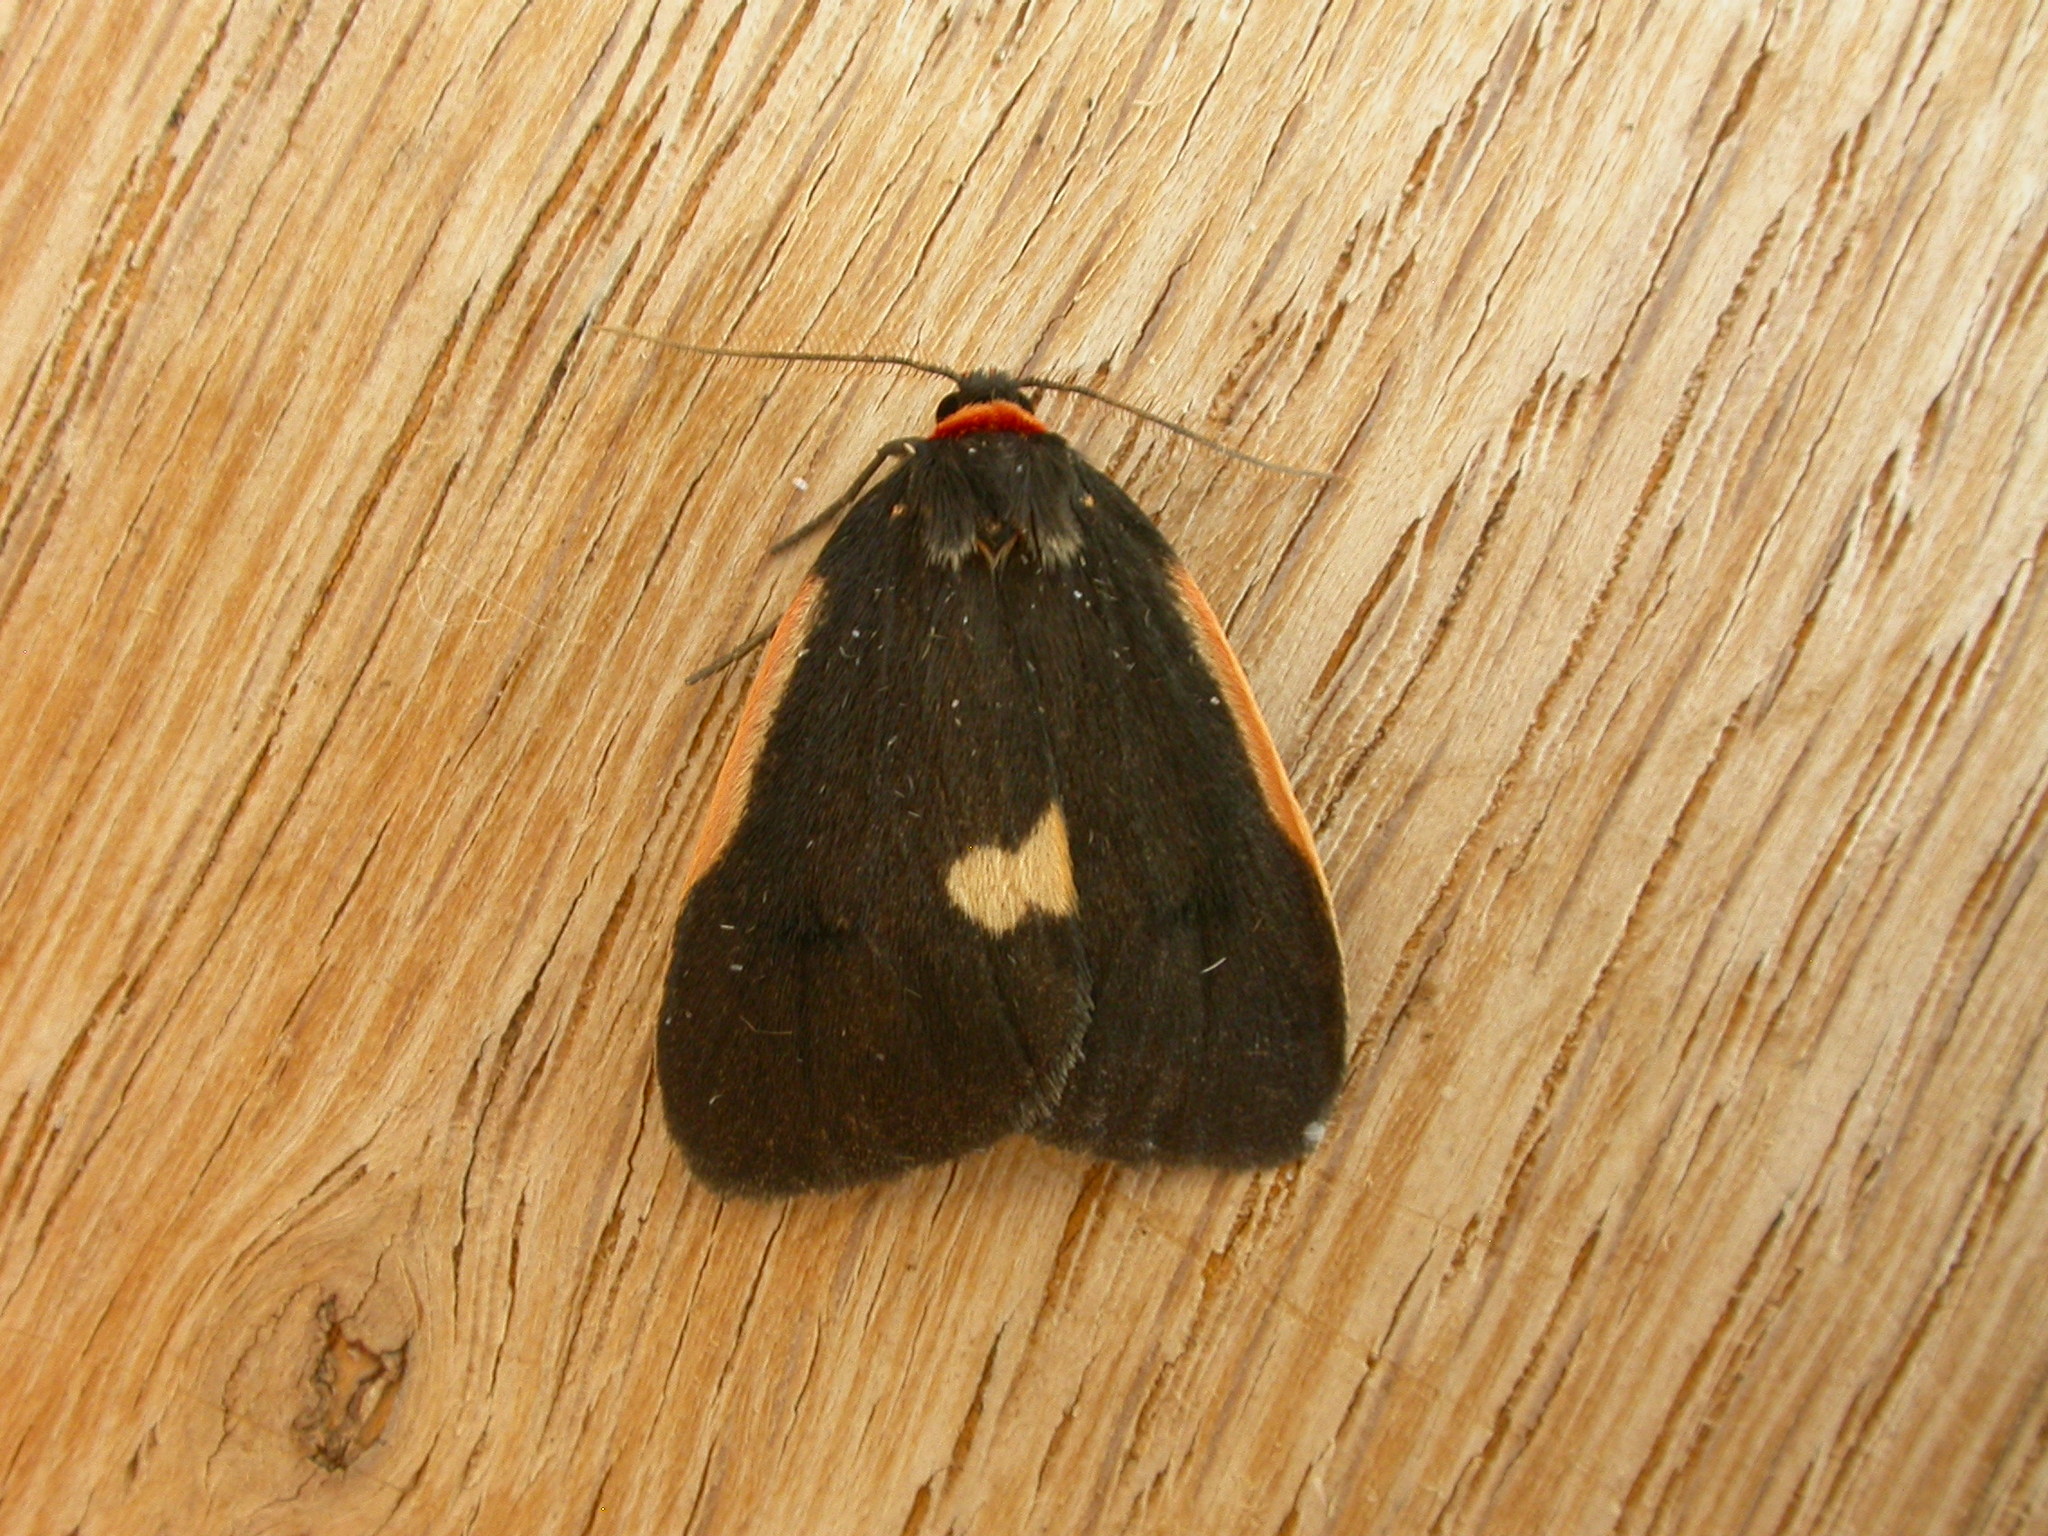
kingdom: Animalia
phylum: Arthropoda
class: Insecta
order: Lepidoptera
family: Erebidae
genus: Castulo
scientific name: Castulo doubledayi
